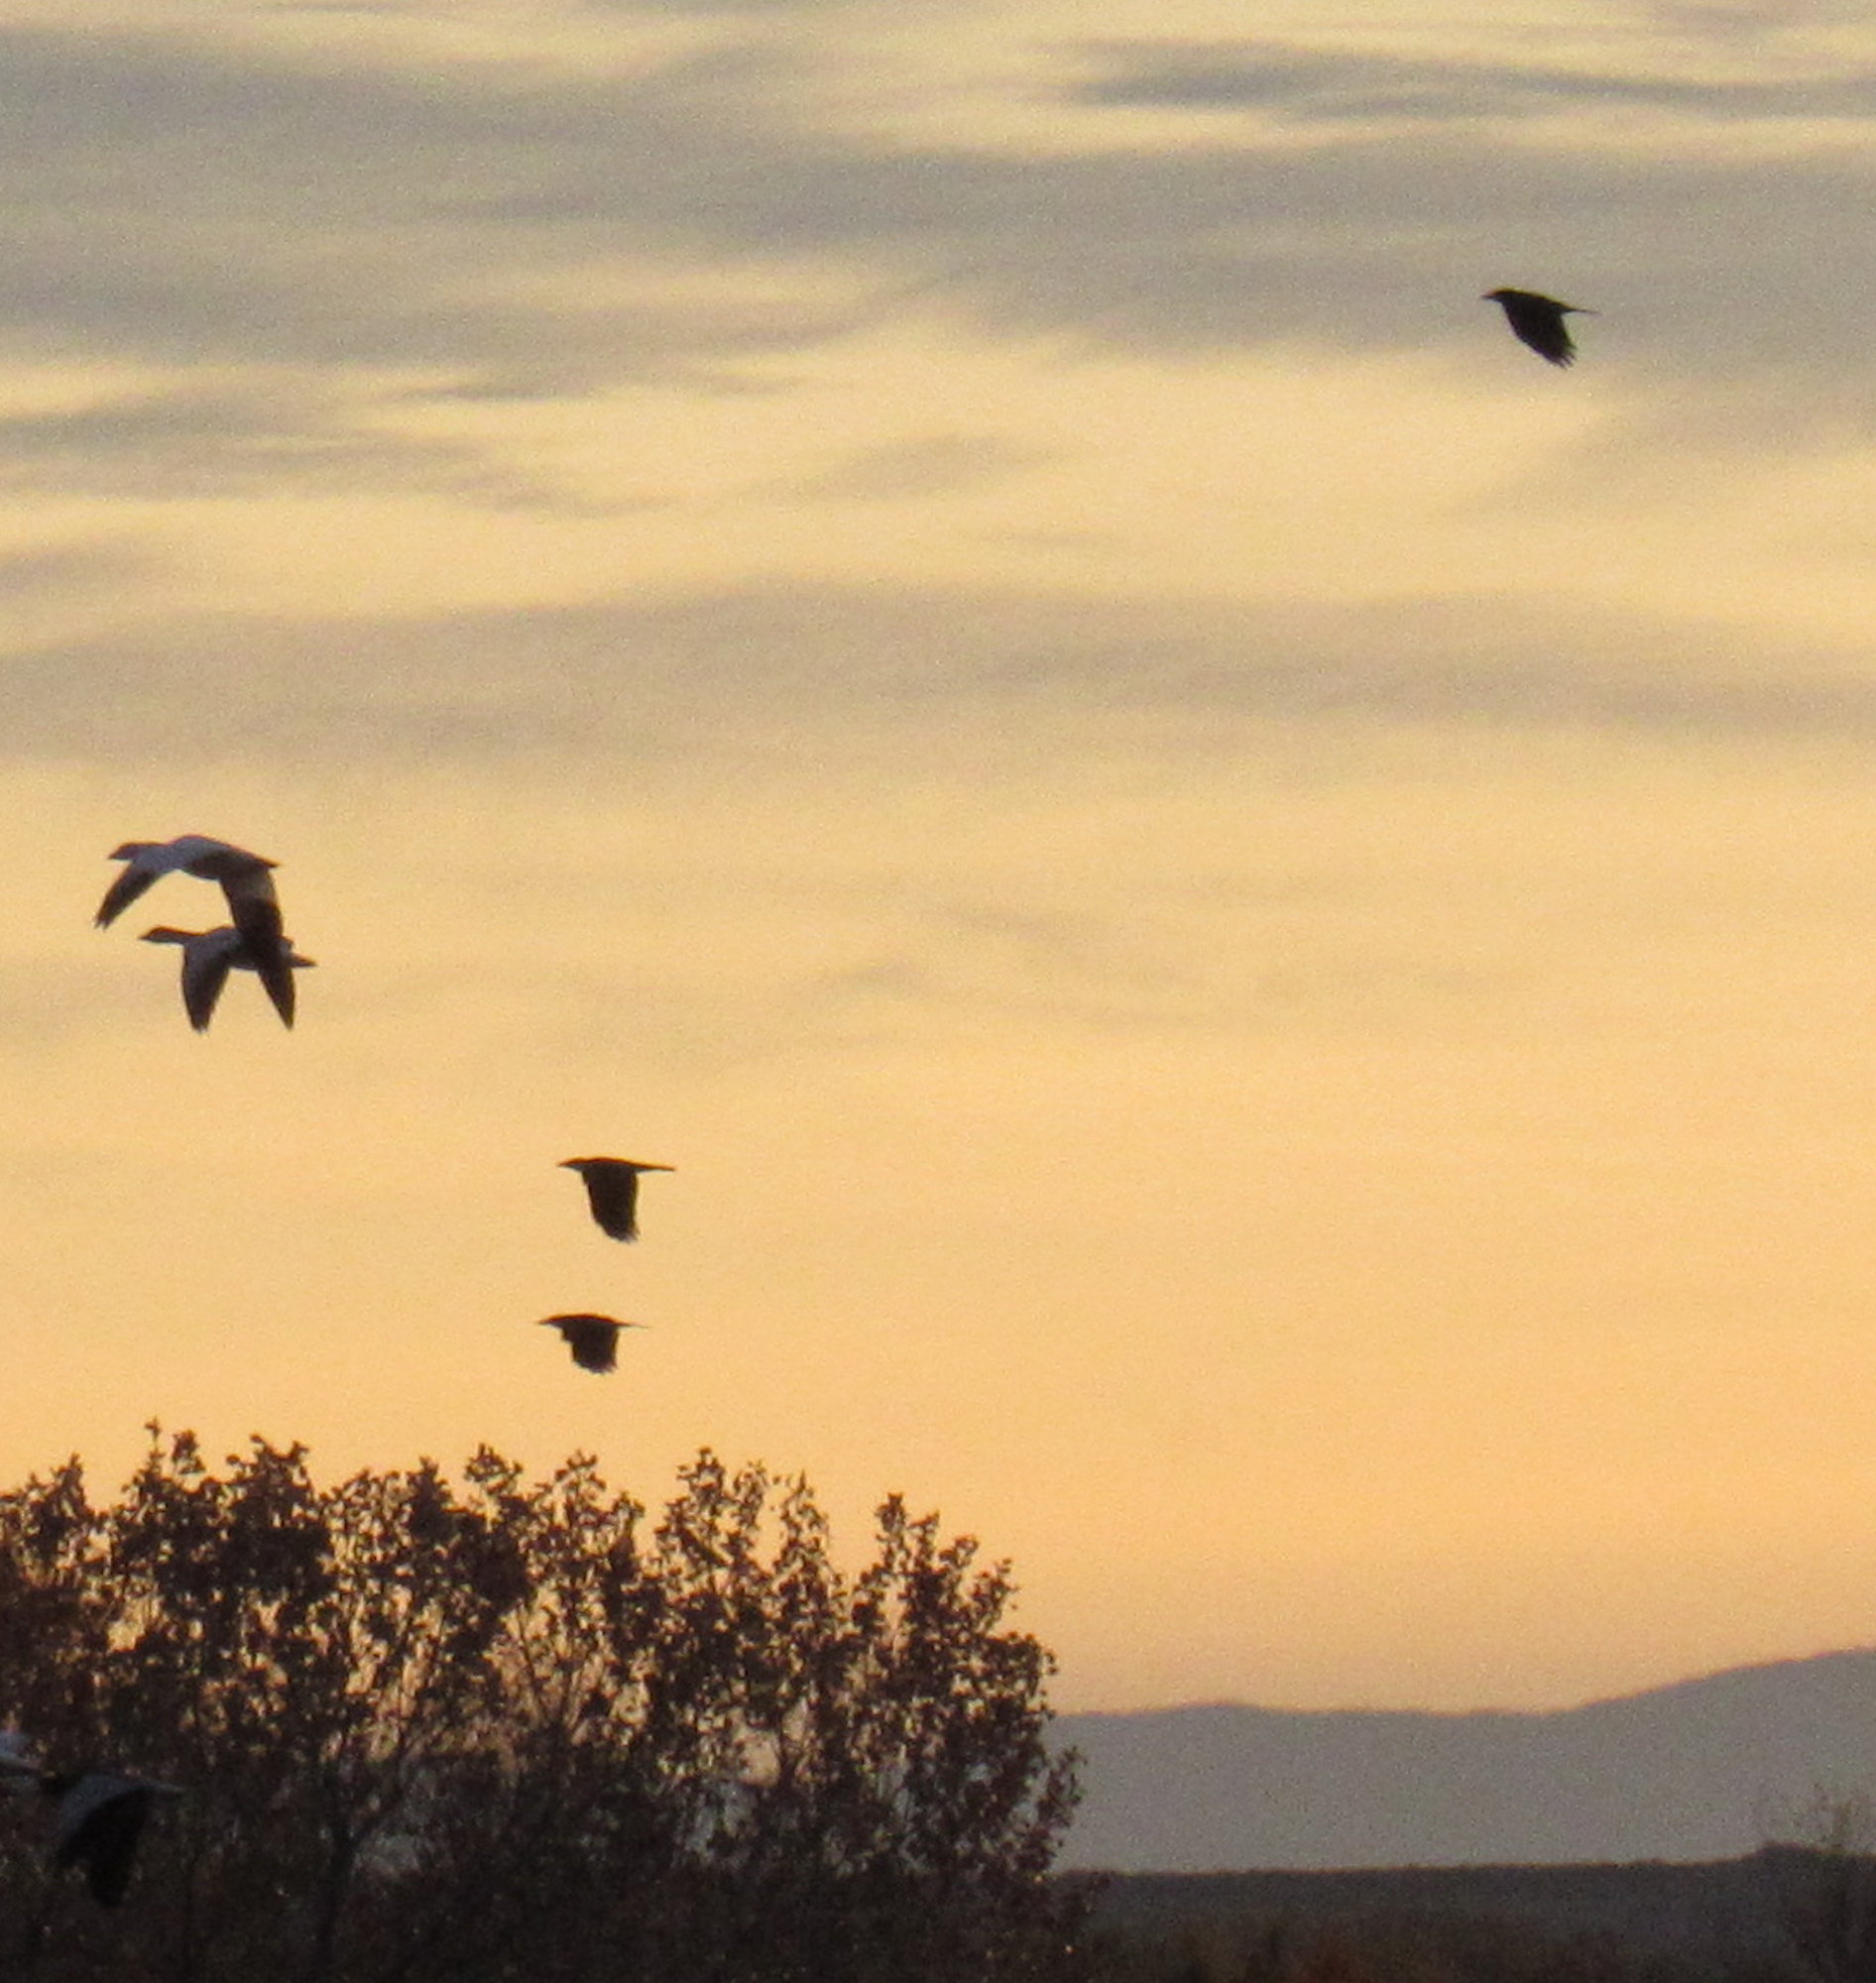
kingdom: Animalia
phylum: Chordata
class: Aves
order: Passeriformes
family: Corvidae
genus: Corvus
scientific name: Corvus brachyrhynchos
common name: American crow
